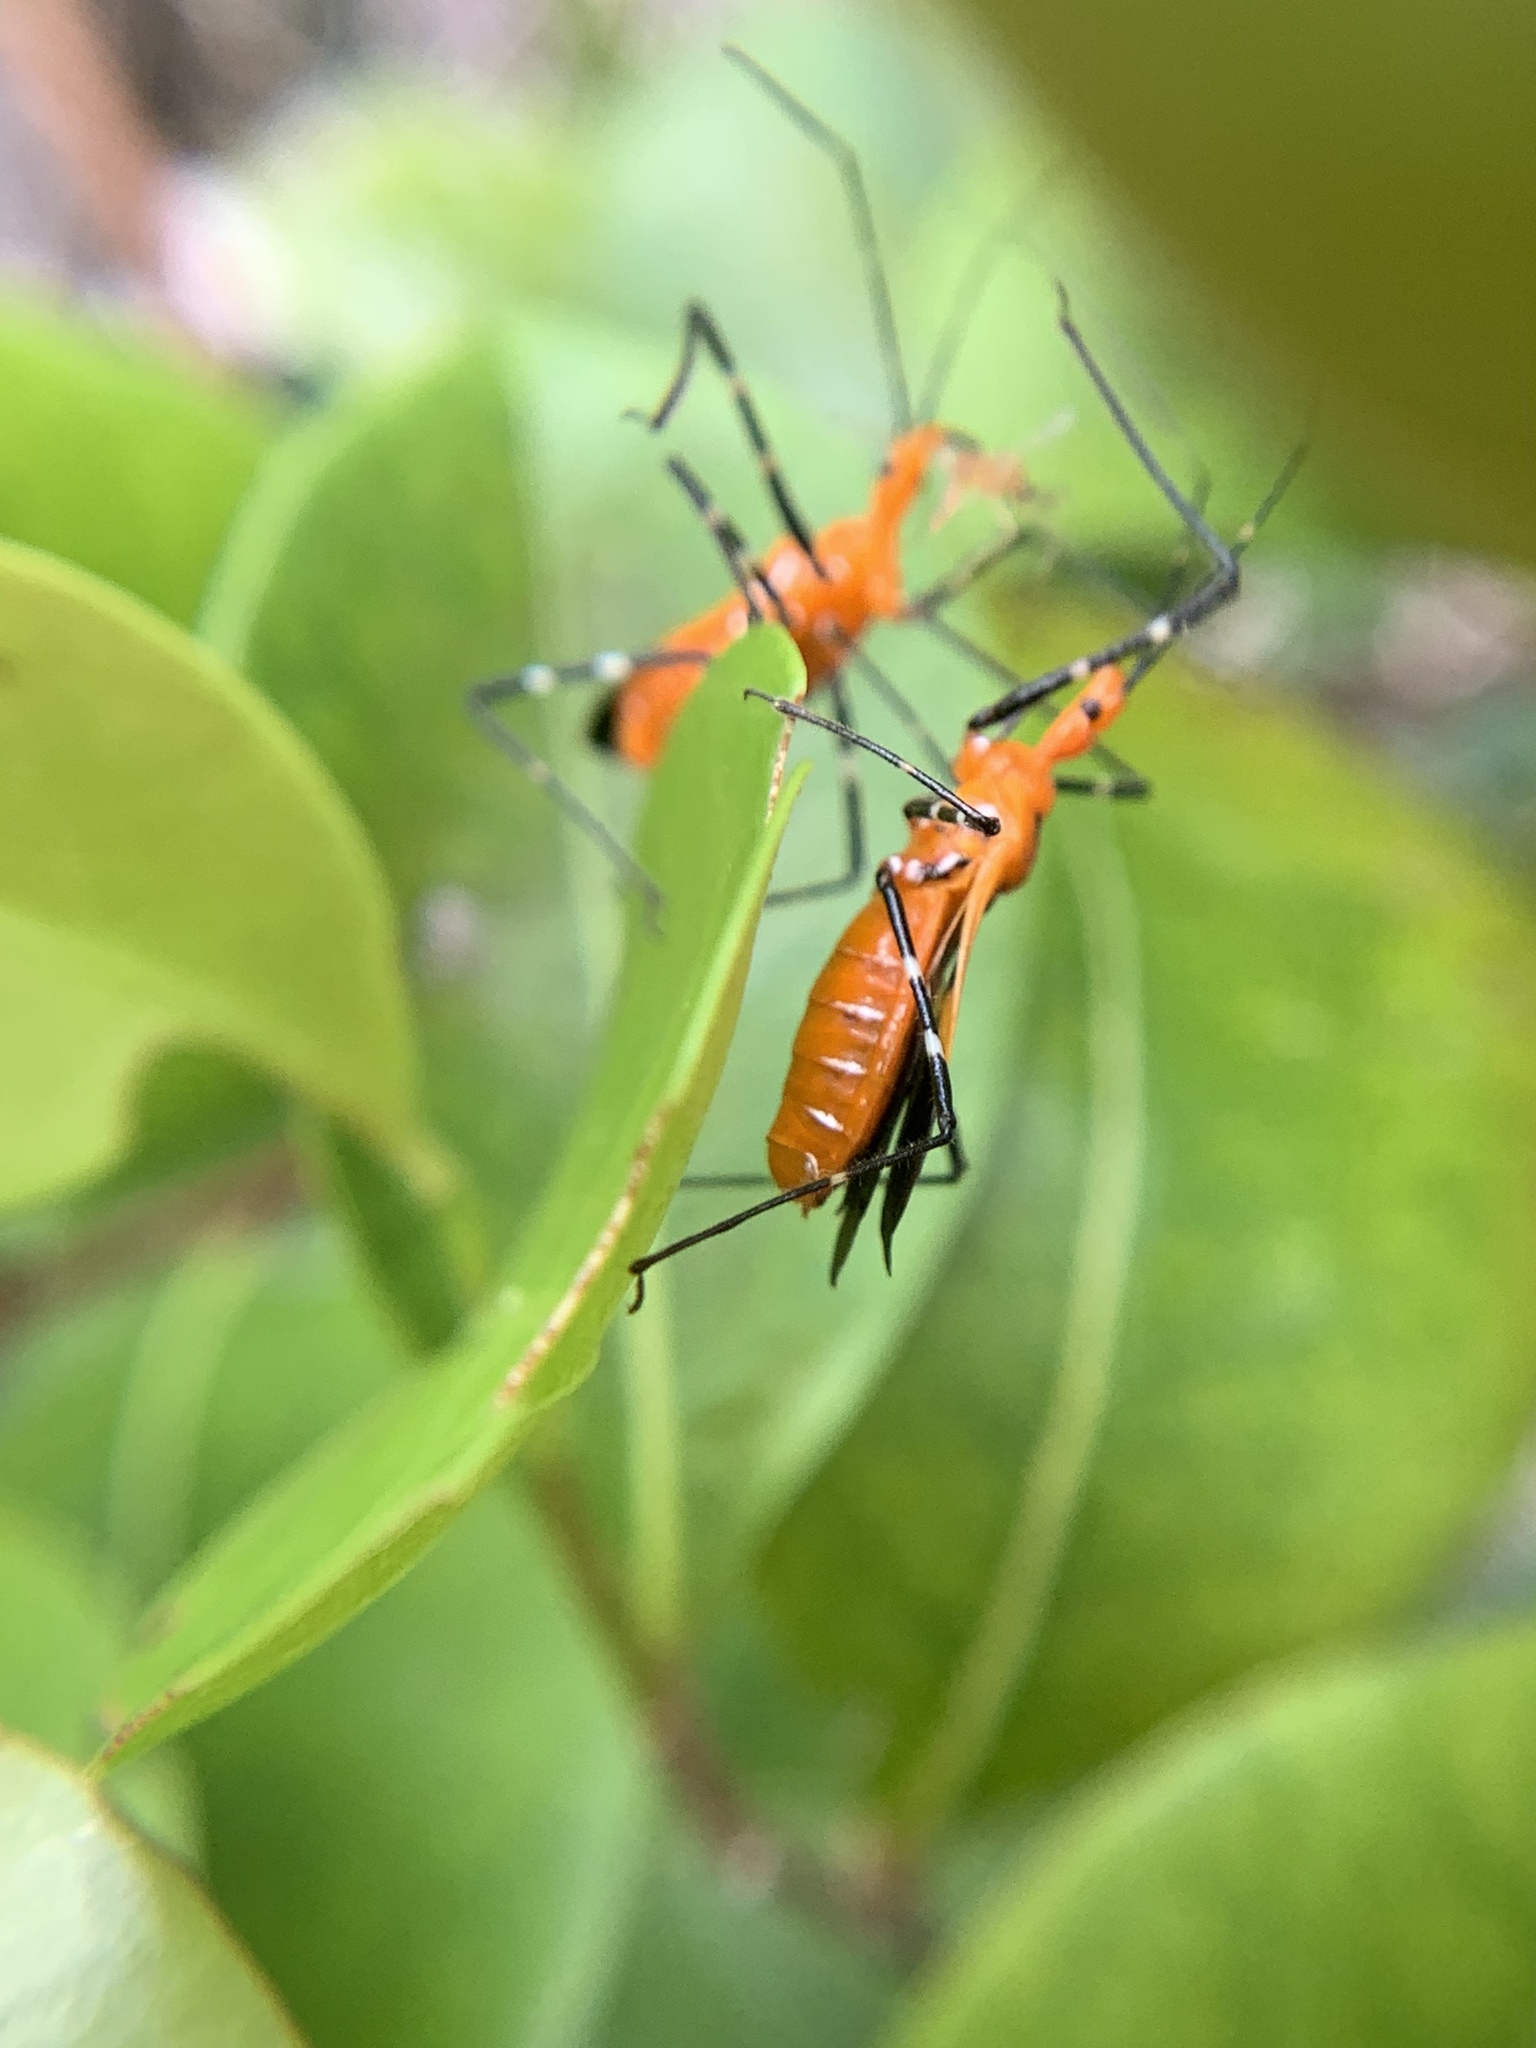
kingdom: Animalia
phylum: Arthropoda
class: Insecta
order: Hemiptera
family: Reduviidae
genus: Zelus
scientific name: Zelus longipes
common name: Milkweed assassin bug
